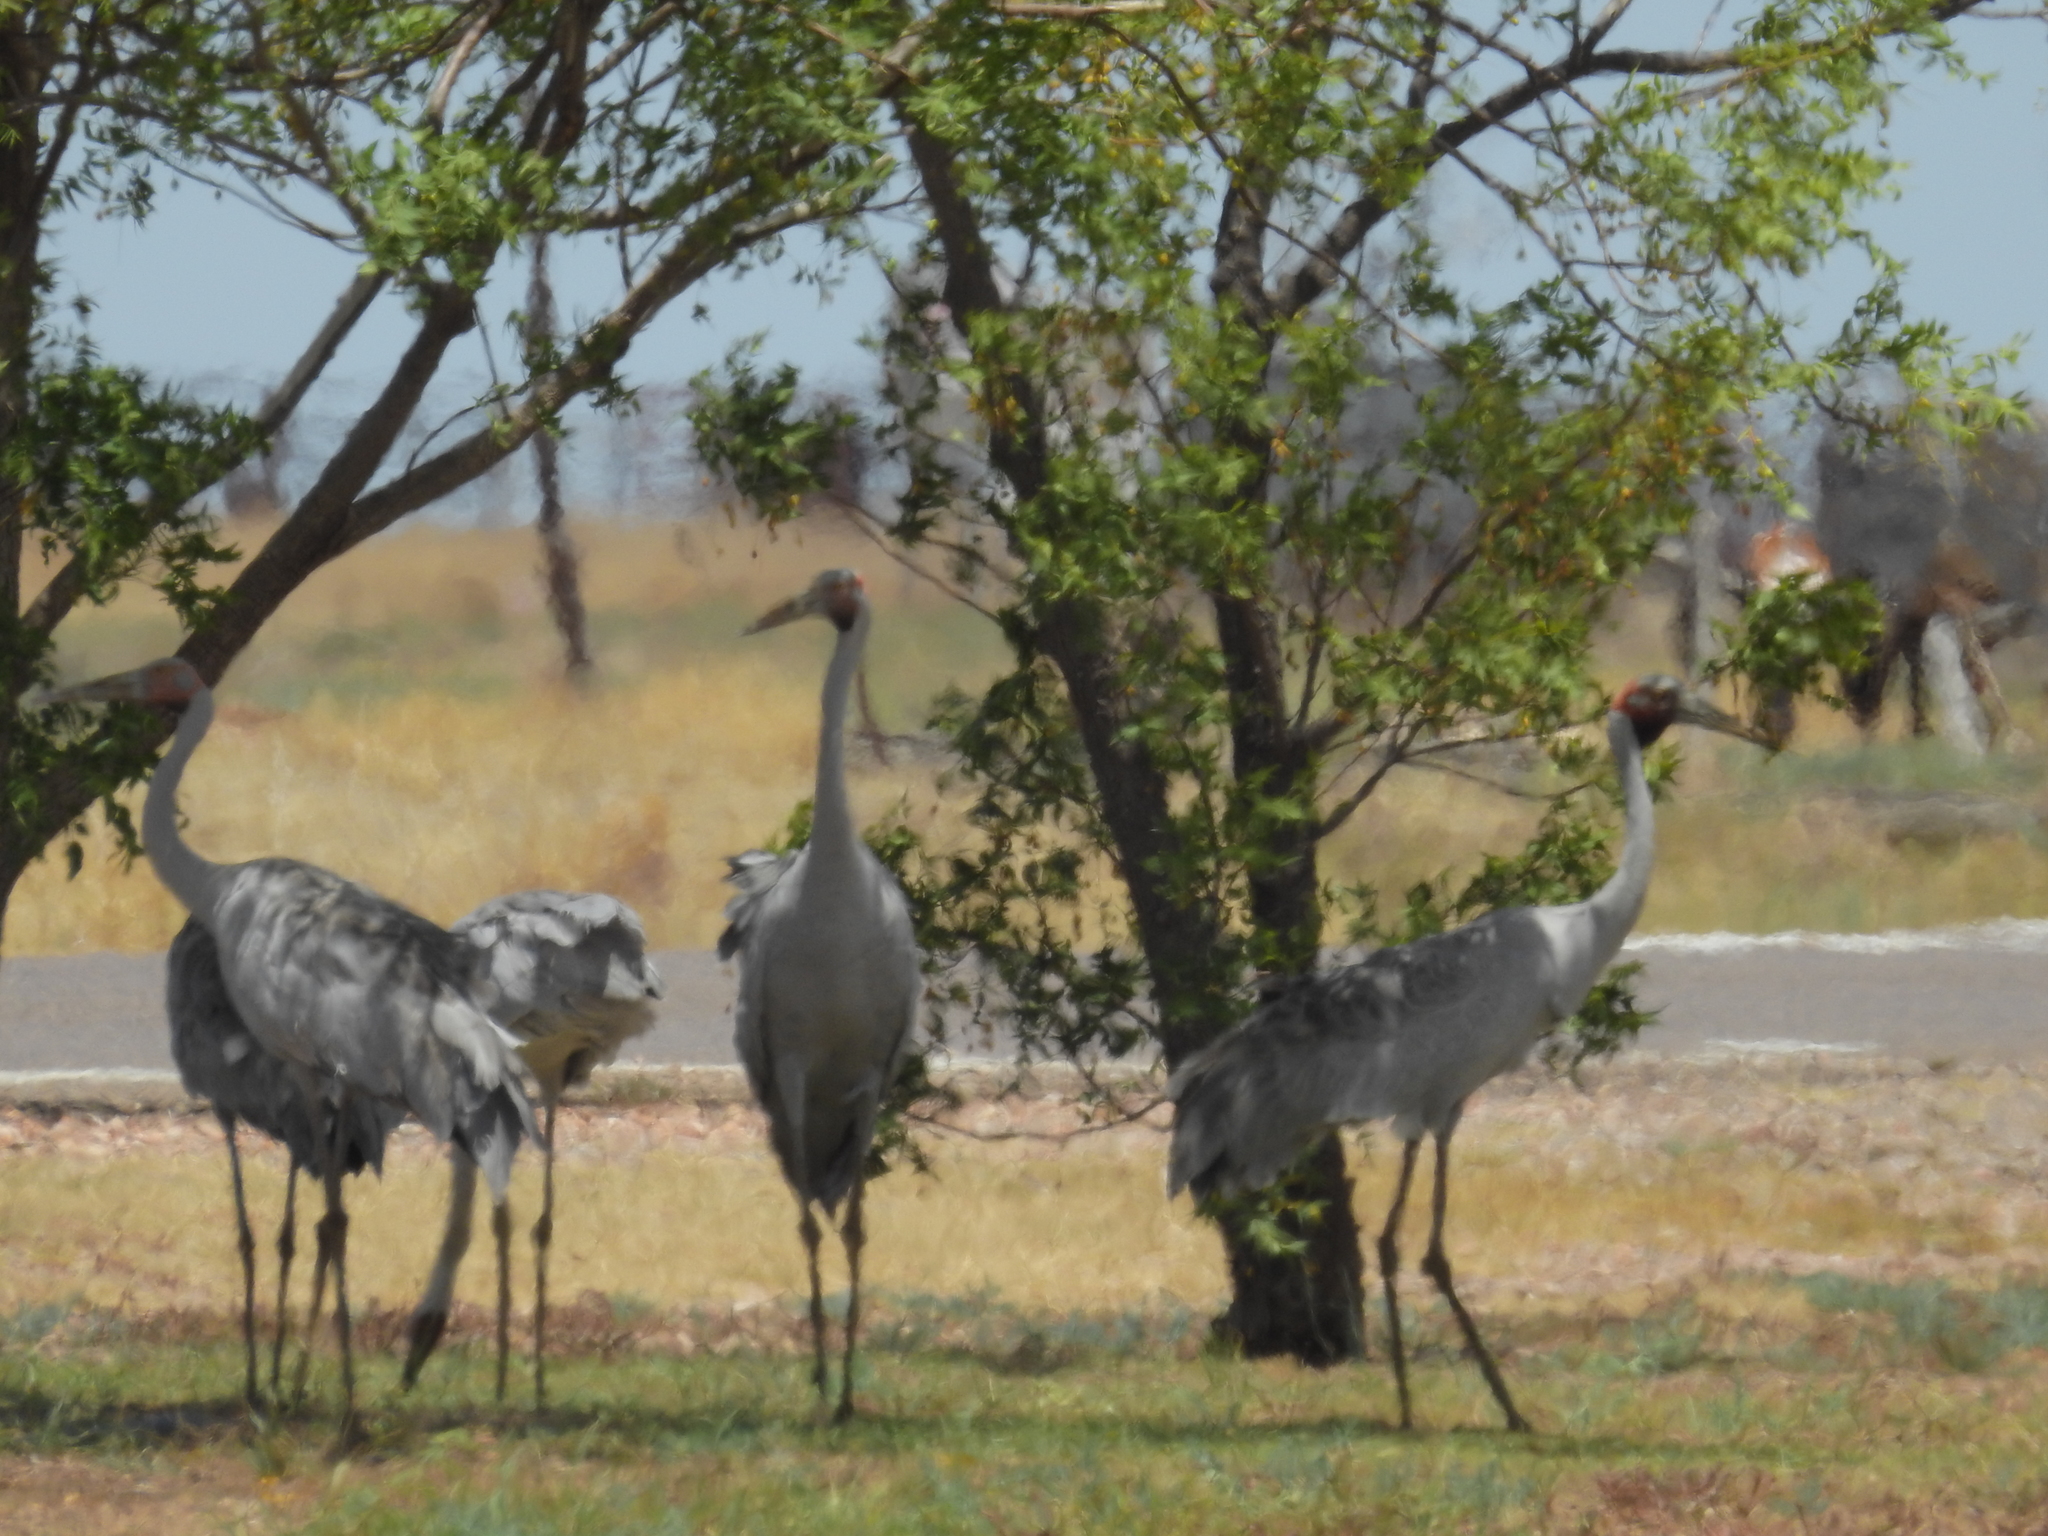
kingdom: Animalia
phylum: Chordata
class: Aves
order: Gruiformes
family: Gruidae
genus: Grus
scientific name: Grus rubicunda
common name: Brolga
